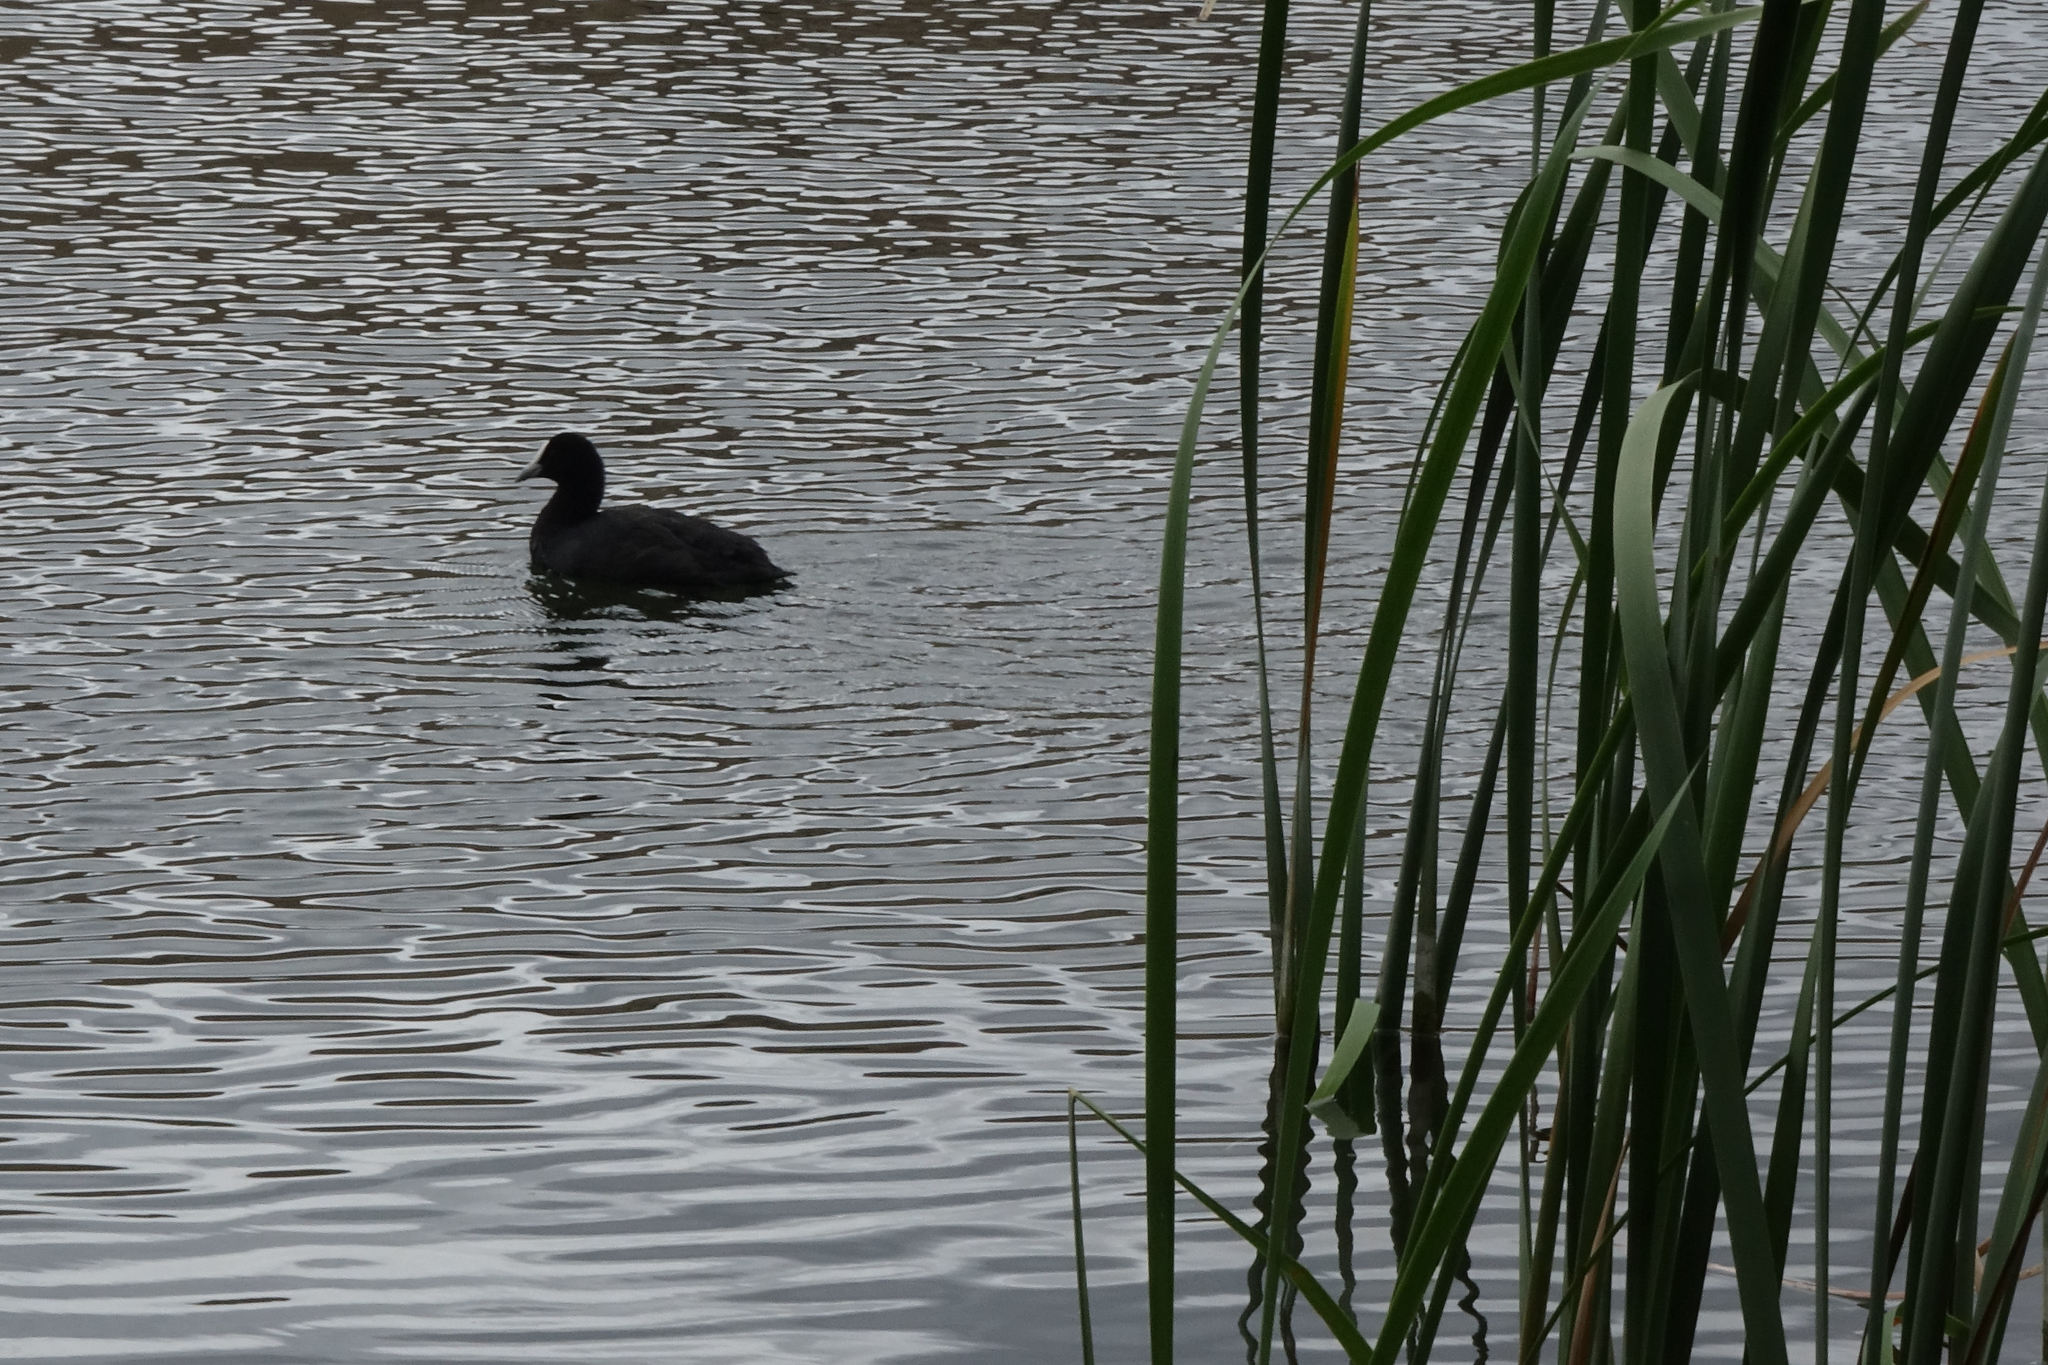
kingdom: Animalia
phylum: Chordata
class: Aves
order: Gruiformes
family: Rallidae
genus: Fulica
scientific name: Fulica atra
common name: Eurasian coot
